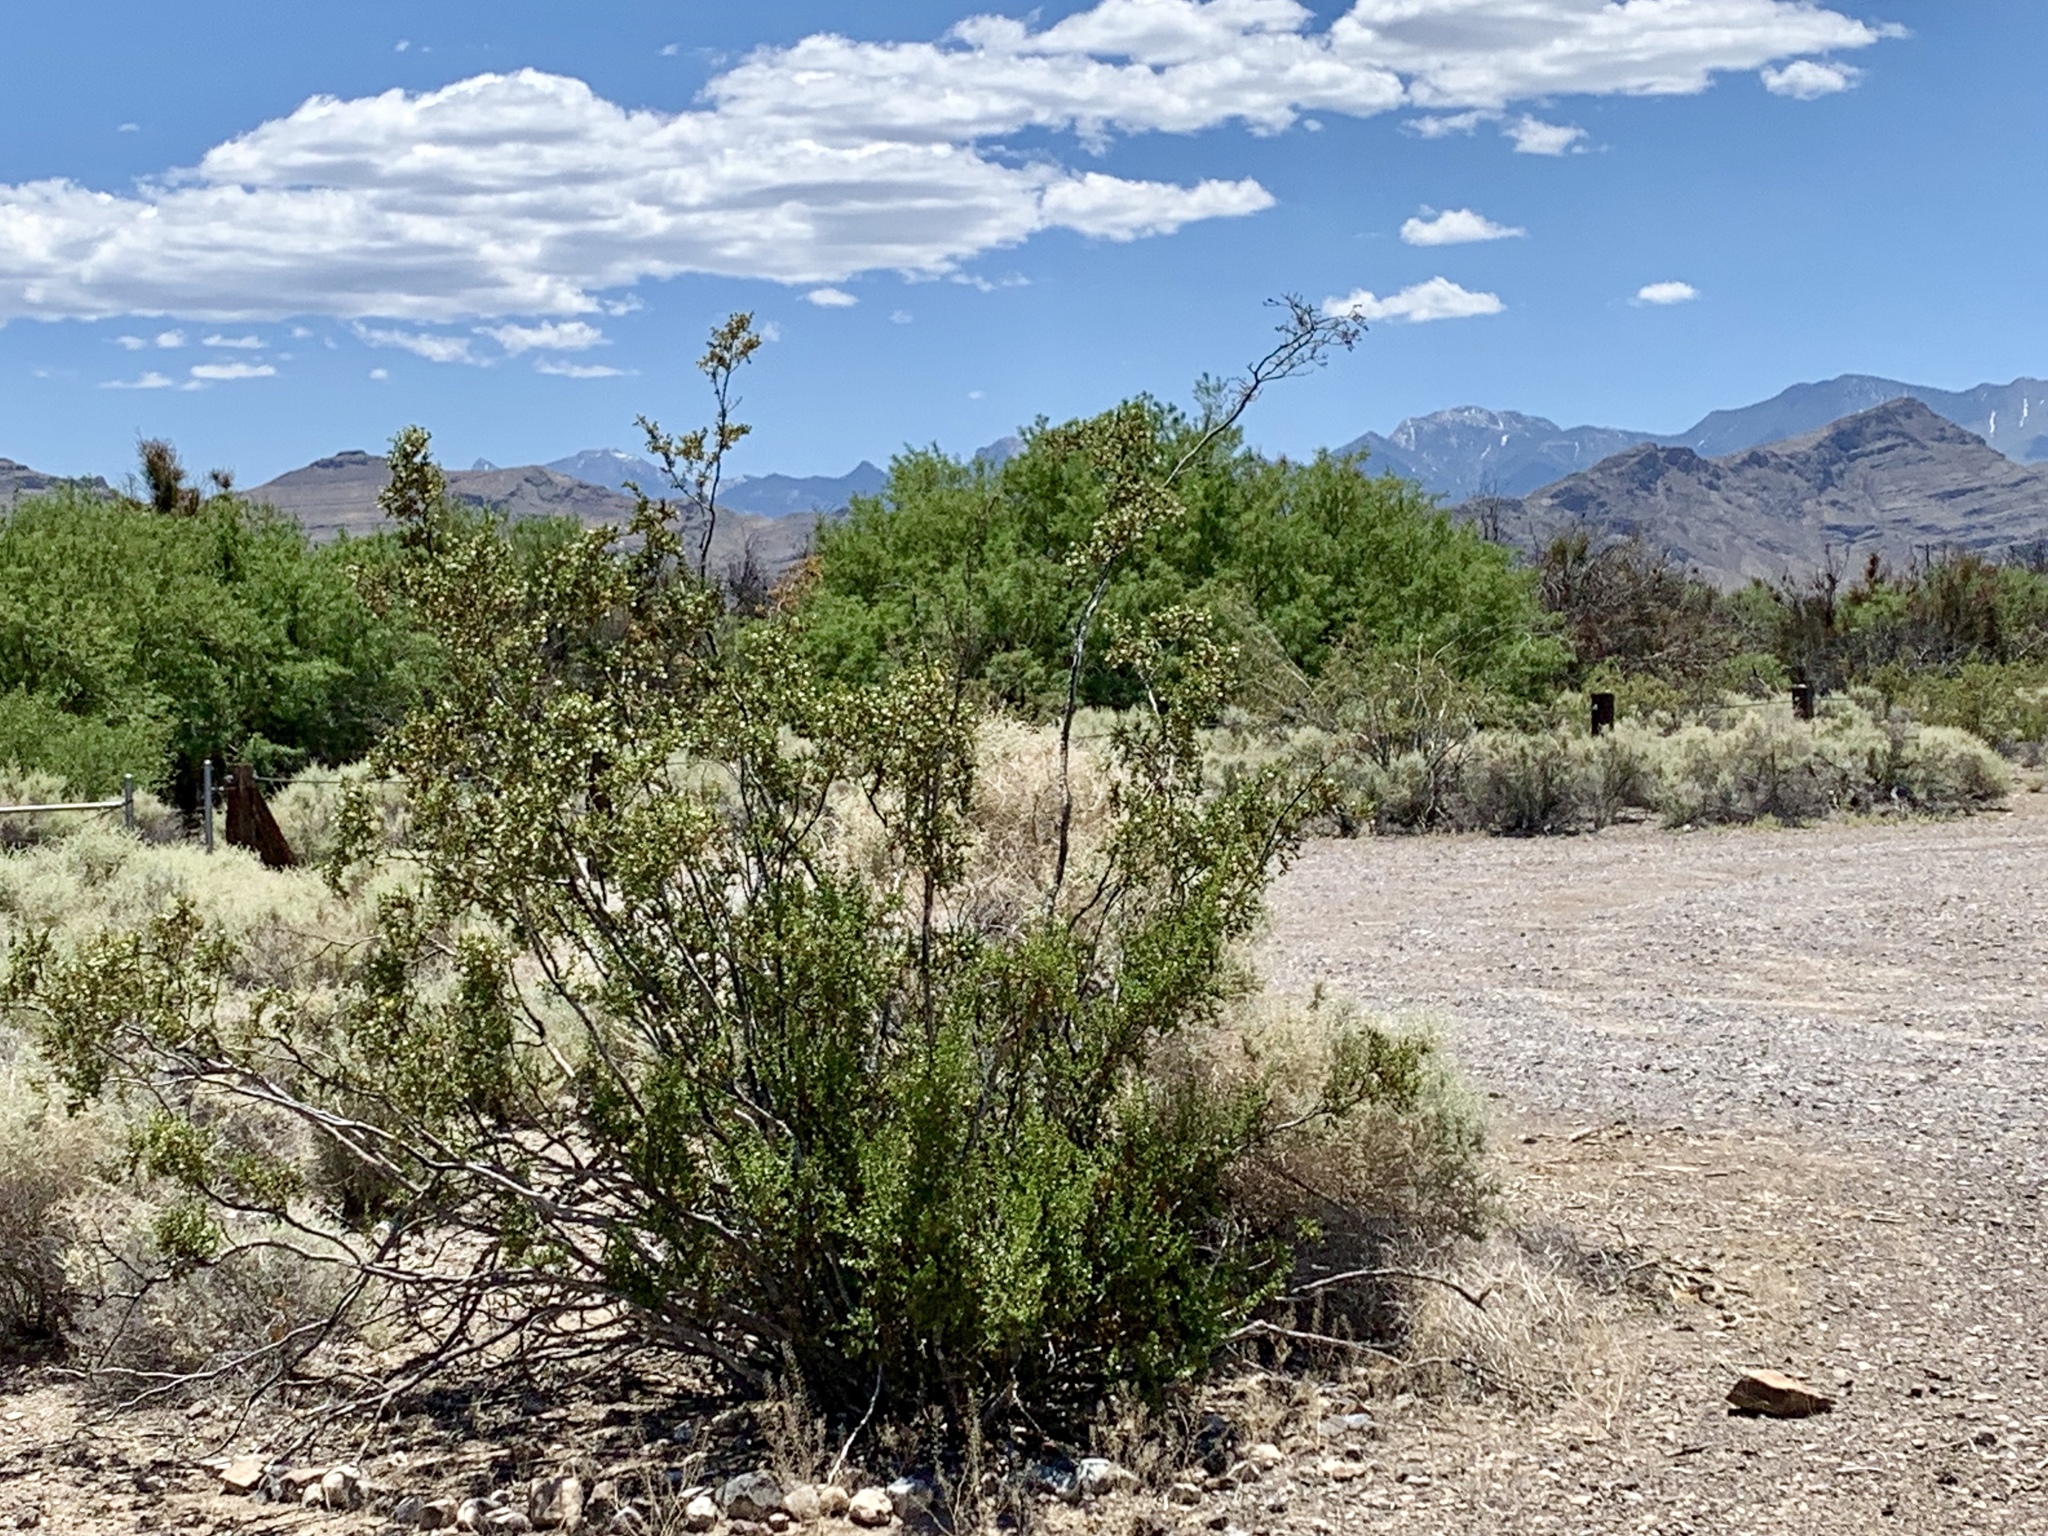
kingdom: Plantae
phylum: Tracheophyta
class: Magnoliopsida
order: Zygophyllales
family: Zygophyllaceae
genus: Larrea
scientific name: Larrea tridentata
